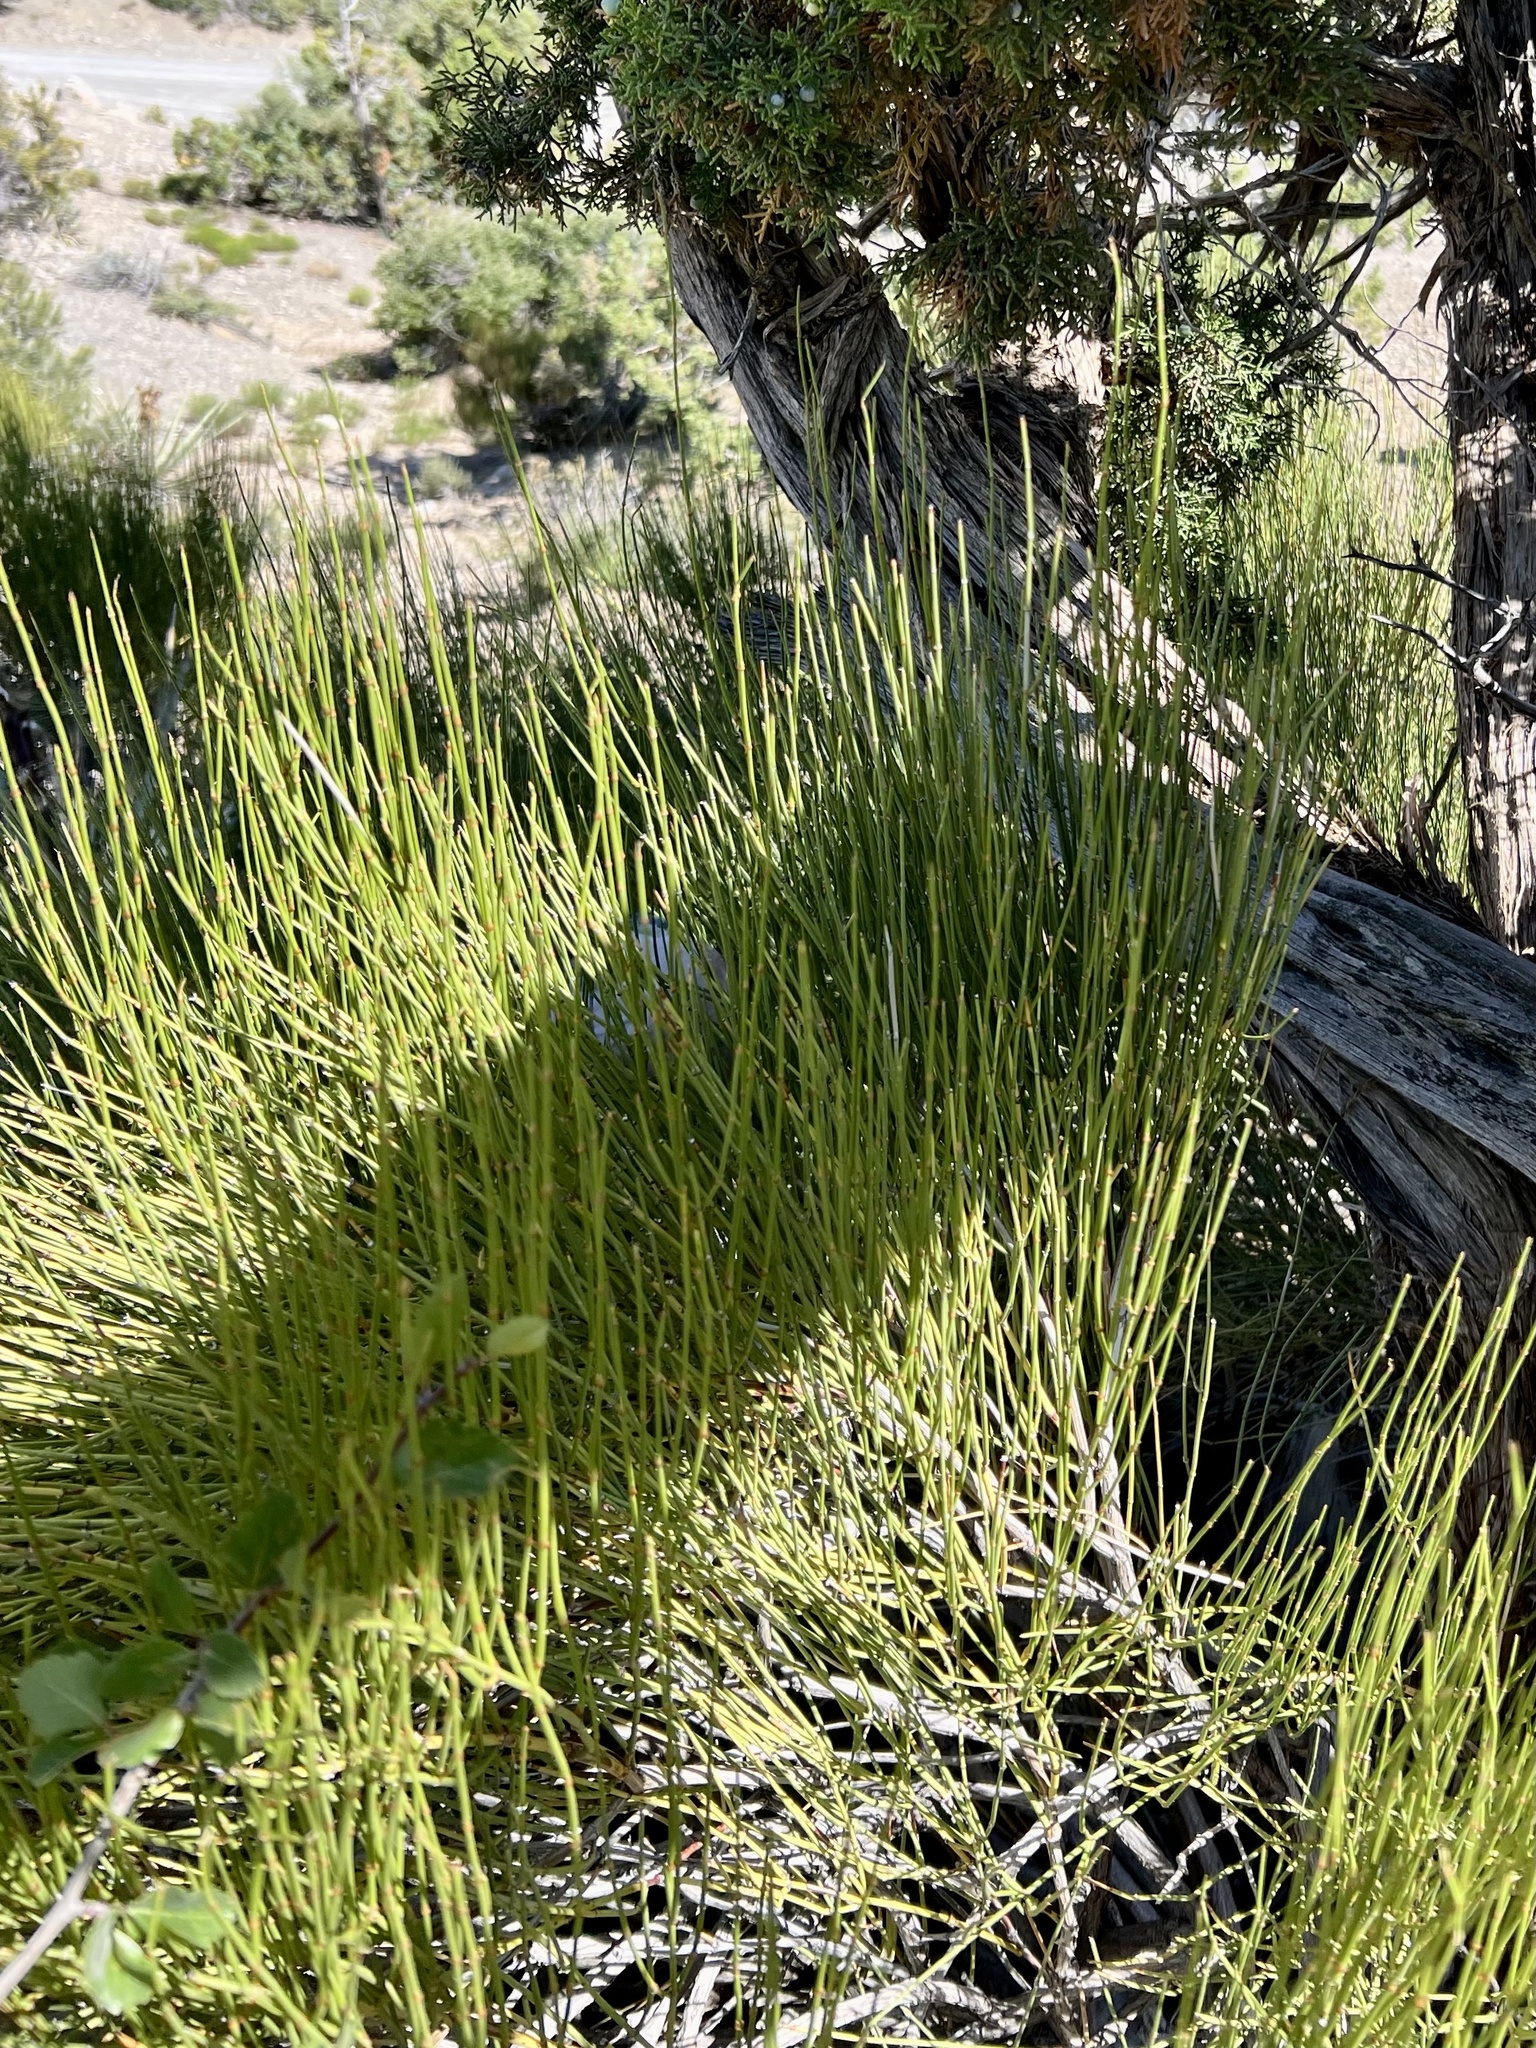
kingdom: Plantae
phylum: Tracheophyta
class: Gnetopsida
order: Ephedrales
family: Ephedraceae
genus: Ephedra
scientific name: Ephedra viridis
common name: Green ephedra
